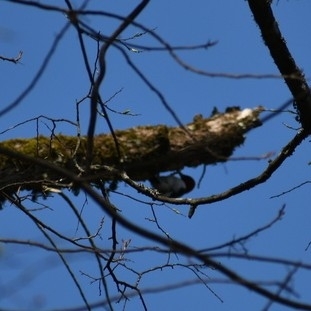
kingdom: Animalia
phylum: Chordata
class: Aves
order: Piciformes
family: Picidae
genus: Melanerpes
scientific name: Melanerpes erythrocephalus
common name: Red-headed woodpecker
